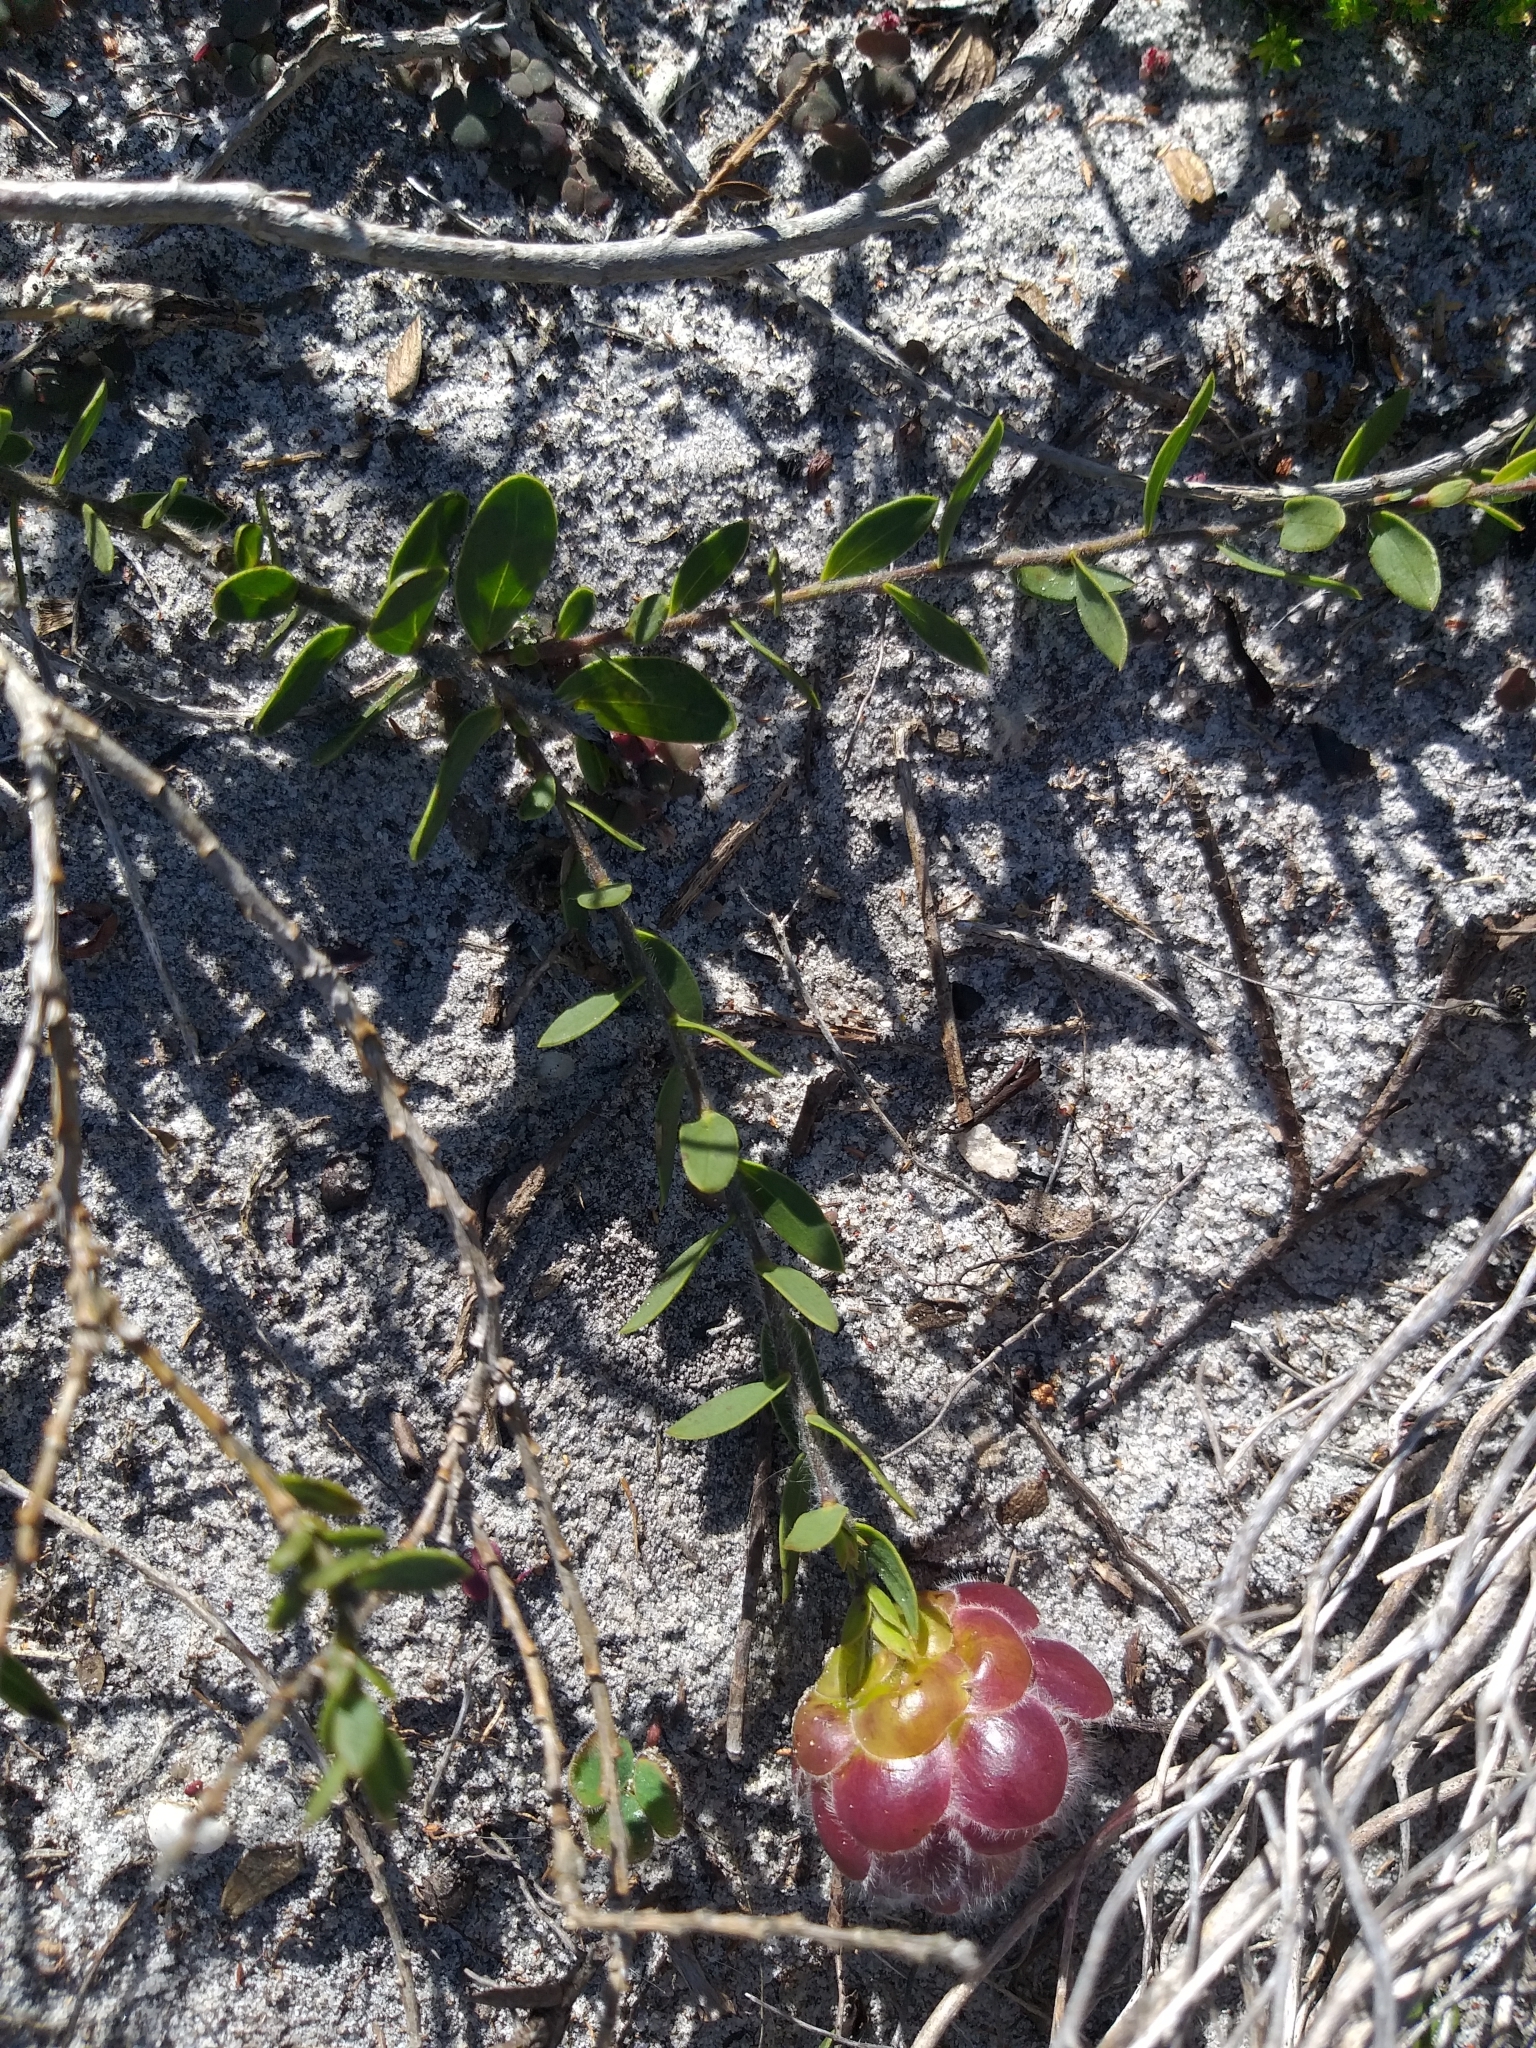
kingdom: Plantae
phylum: Tracheophyta
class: Magnoliopsida
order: Fabales
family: Fabaceae
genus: Liparia
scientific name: Liparia parva
